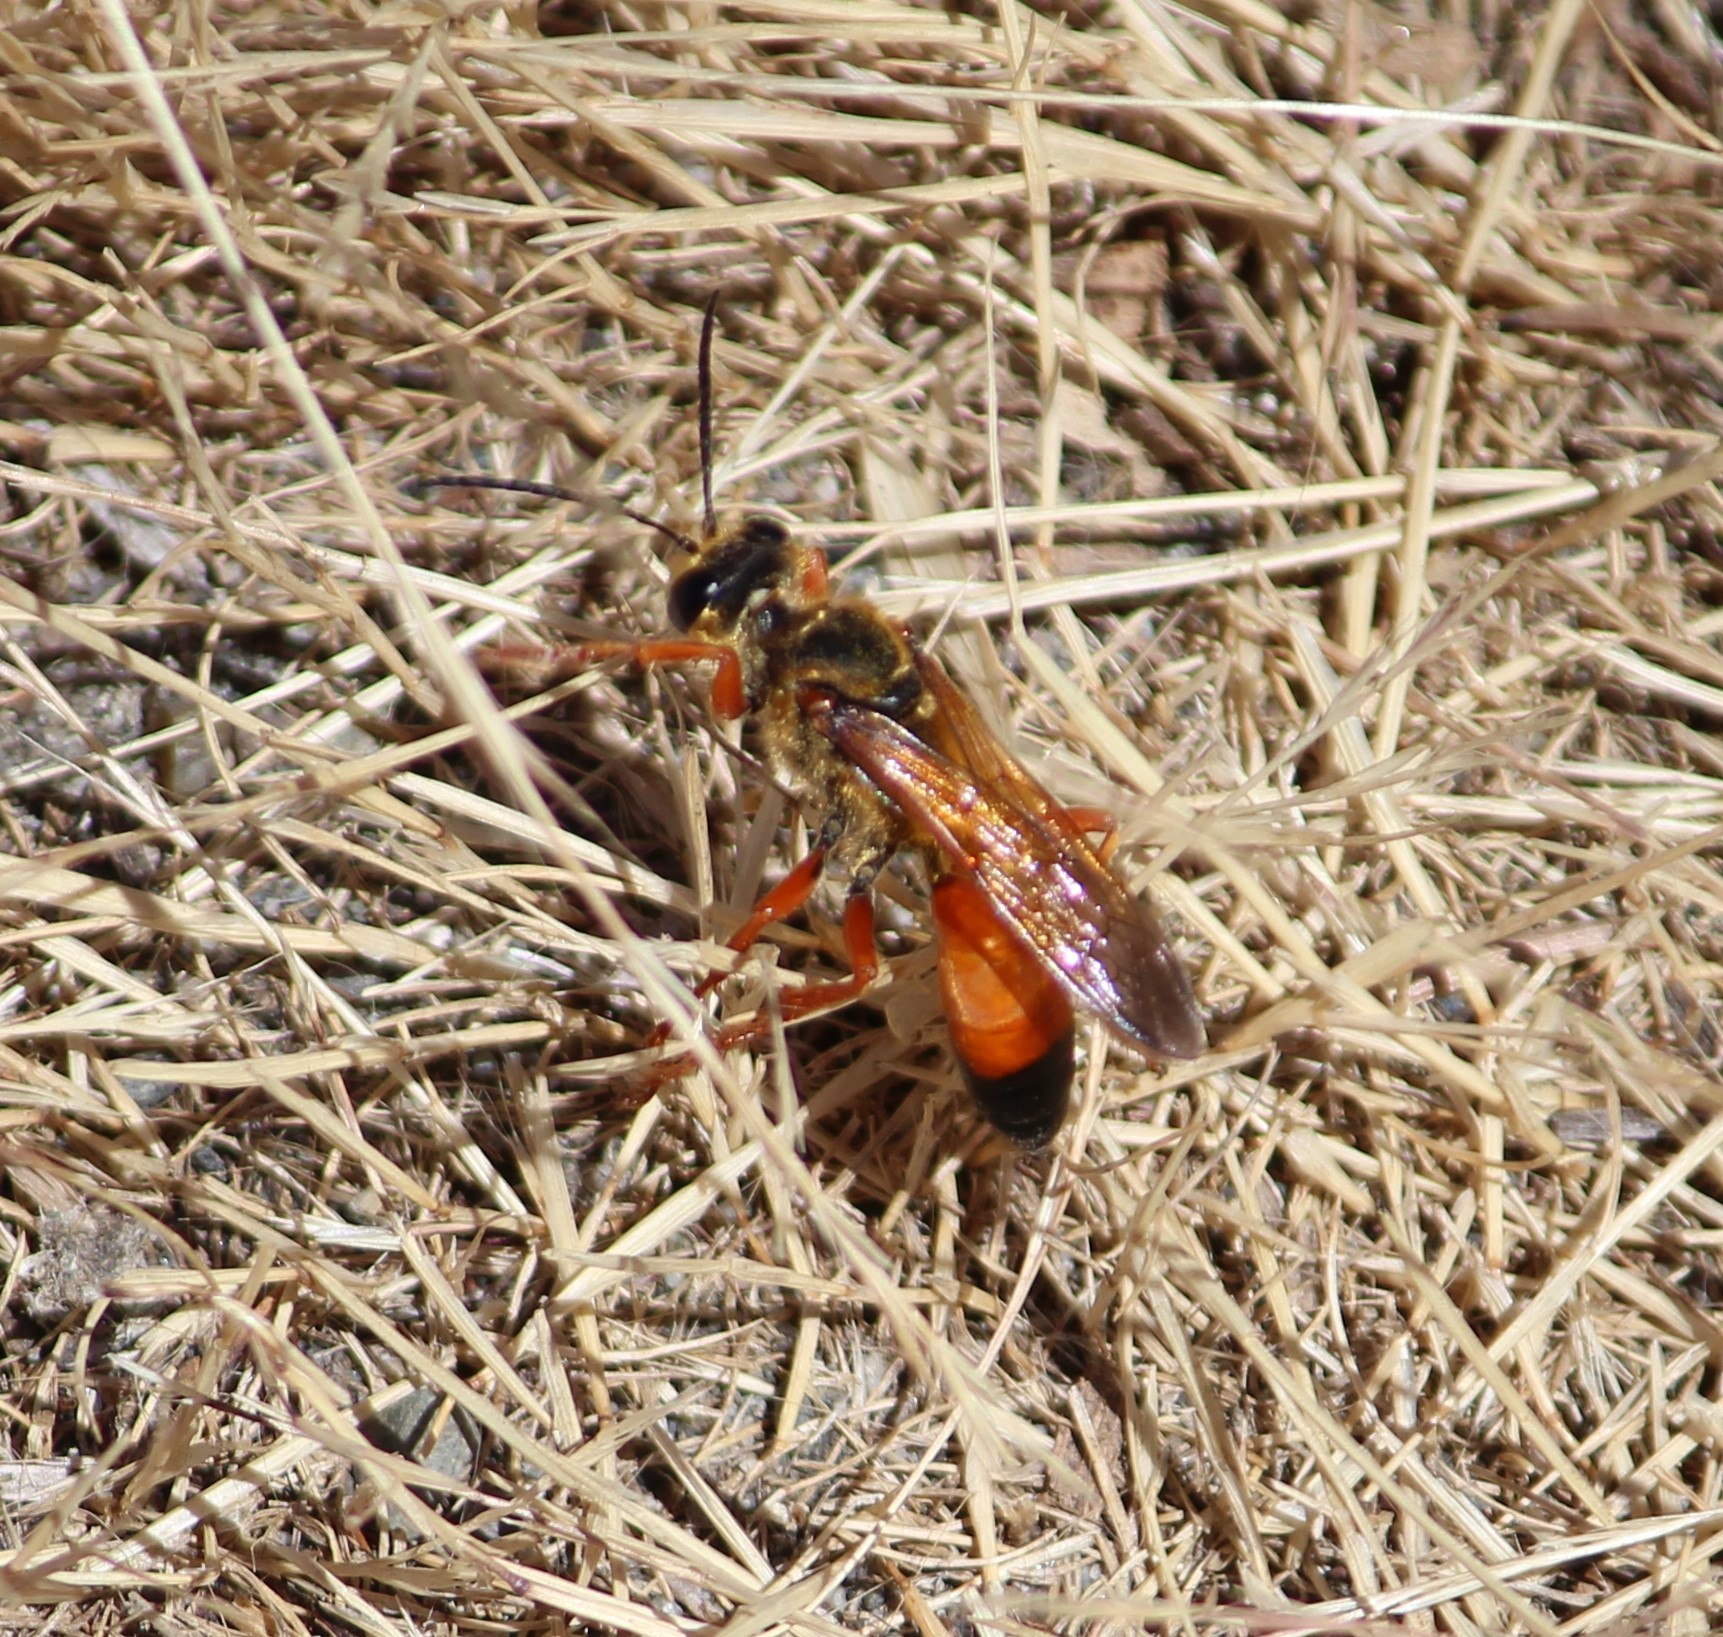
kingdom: Animalia
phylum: Arthropoda
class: Insecta
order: Hymenoptera
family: Sphecidae
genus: Sphex
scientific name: Sphex ichneumoneus
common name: Great golden digger wasp
